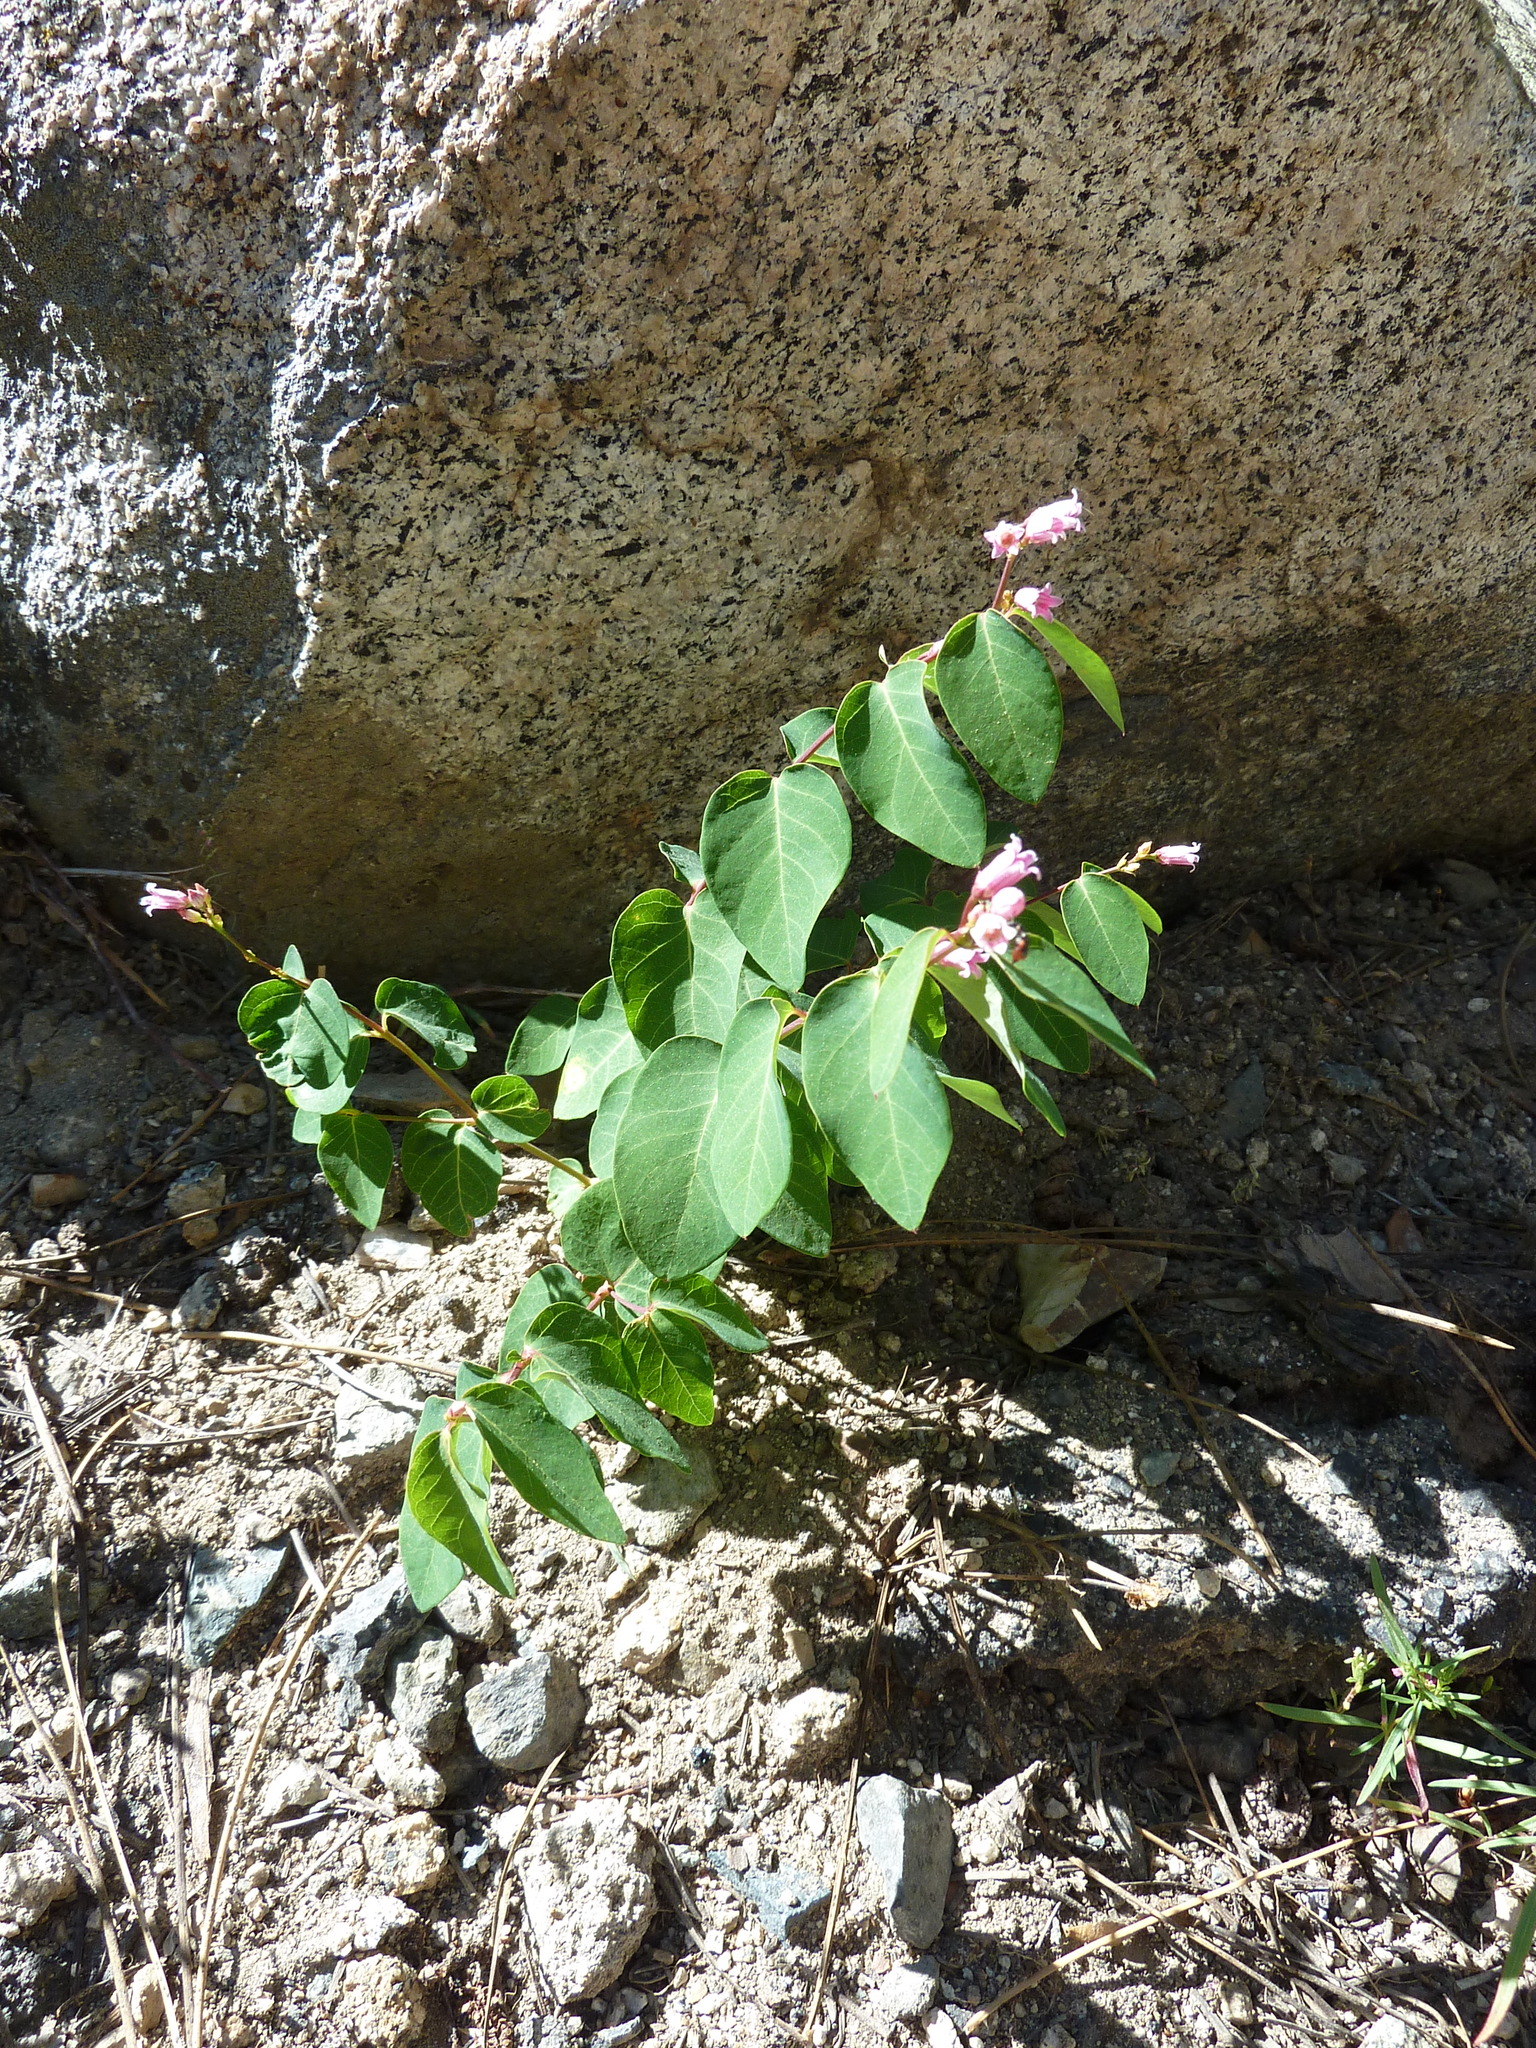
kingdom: Plantae
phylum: Tracheophyta
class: Magnoliopsida
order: Gentianales
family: Apocynaceae
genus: Apocynum
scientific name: Apocynum androsaemifolium
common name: Spreading dogbane
